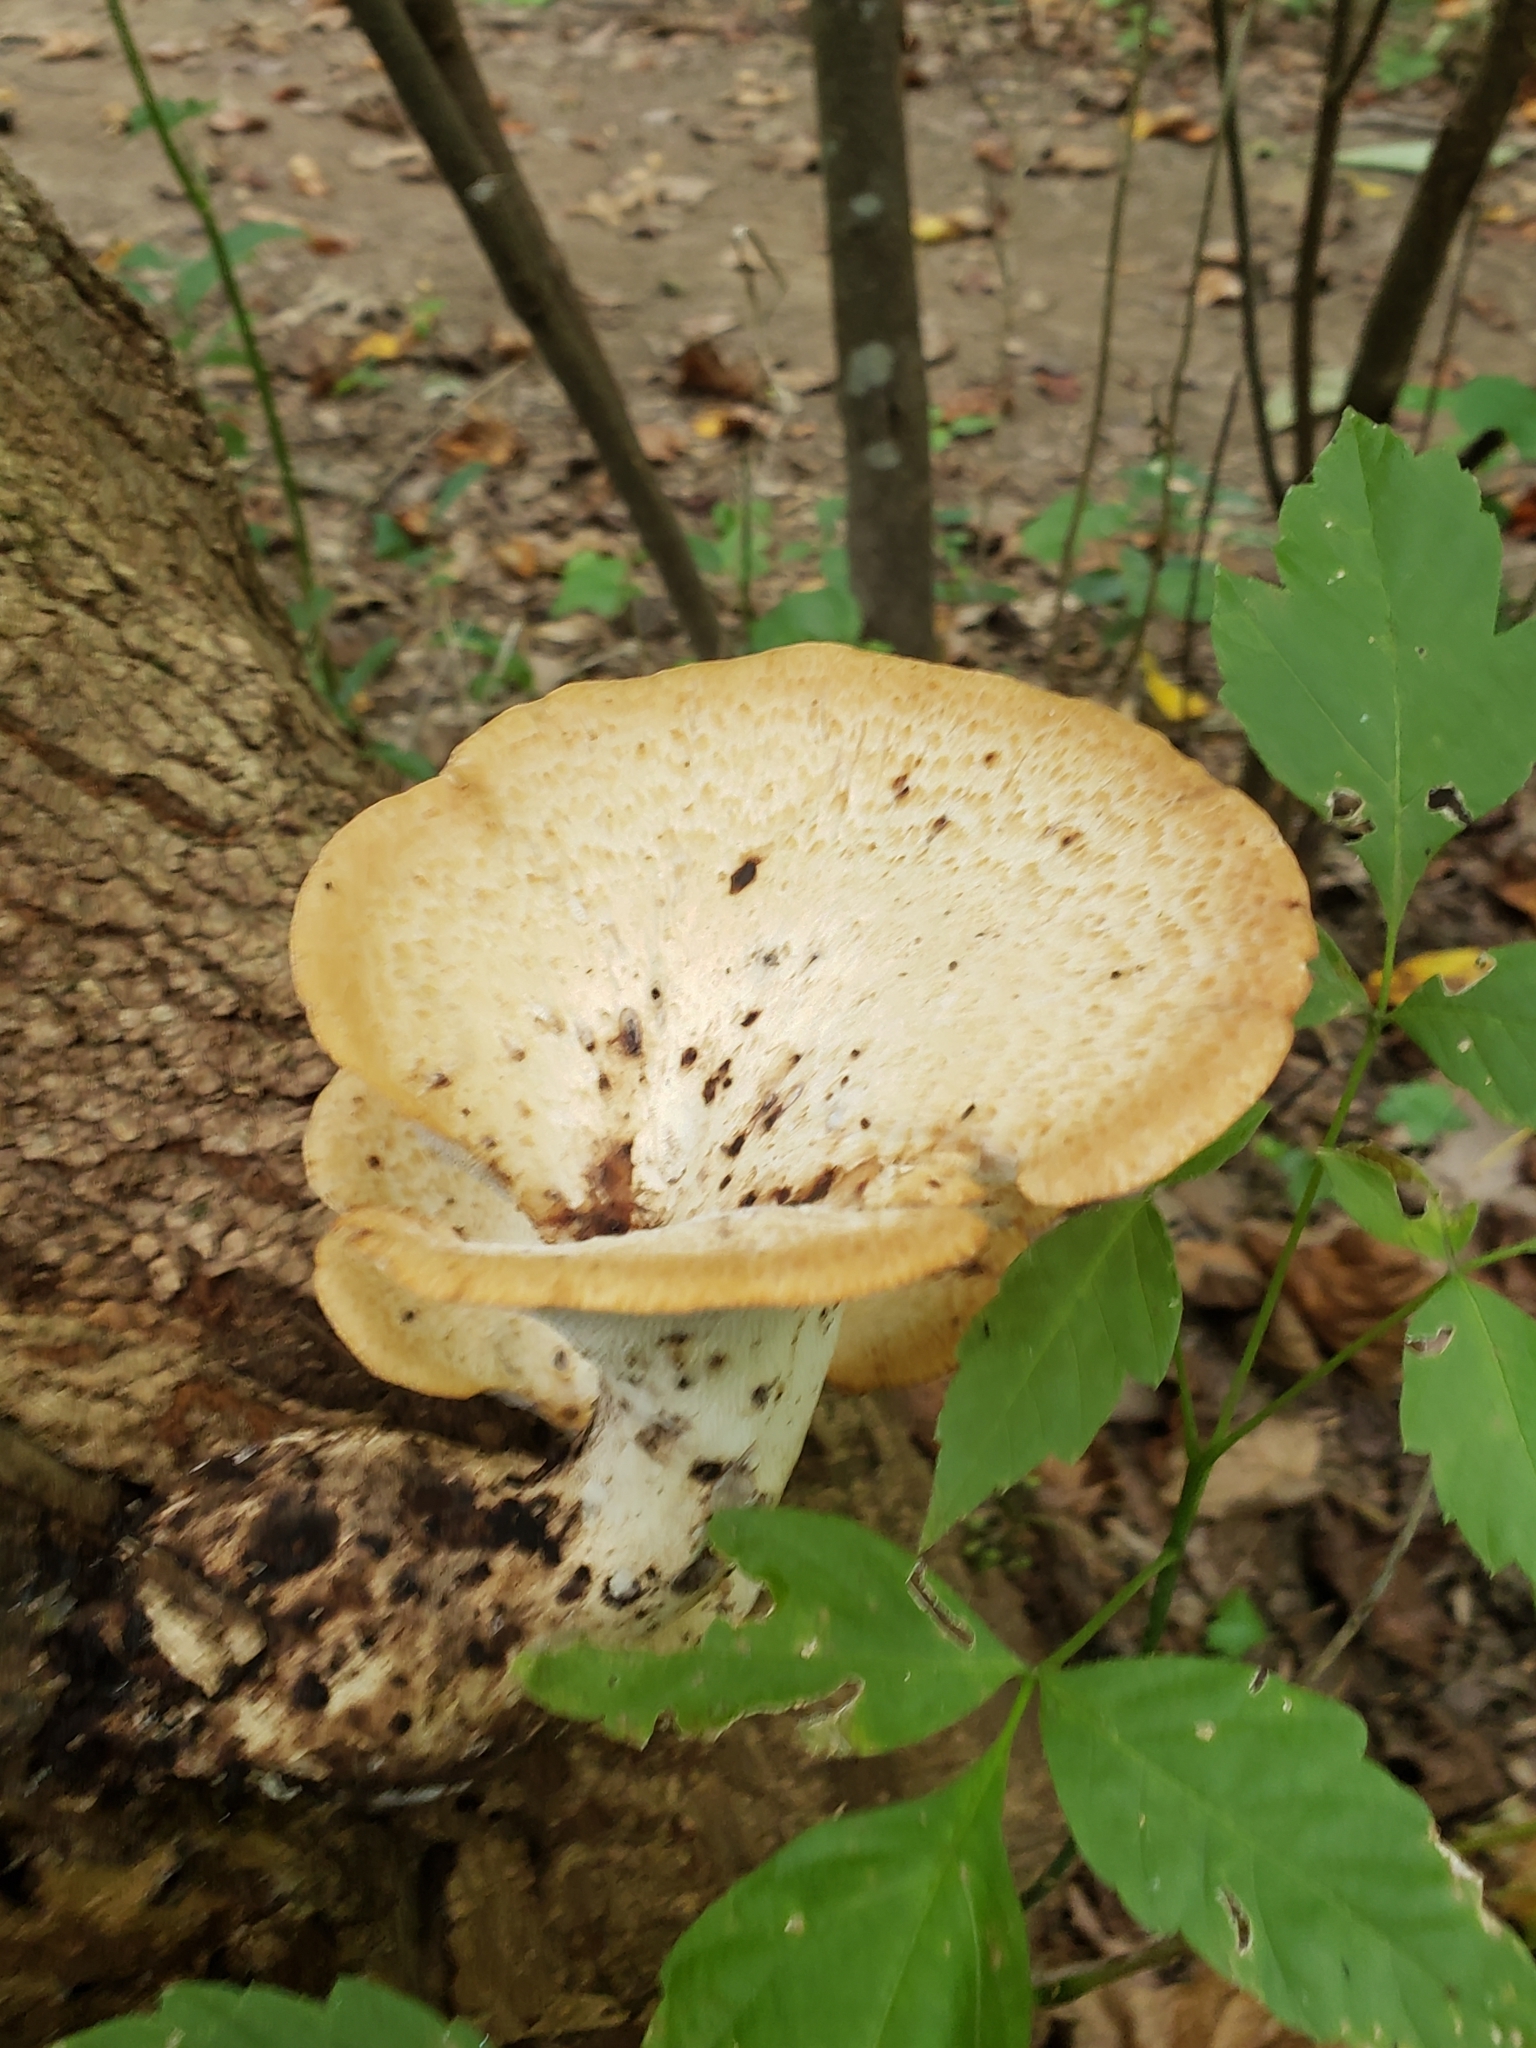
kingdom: Fungi
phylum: Basidiomycota
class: Agaricomycetes
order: Polyporales
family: Polyporaceae
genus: Cerioporus
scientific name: Cerioporus squamosus
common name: Dryad's saddle
